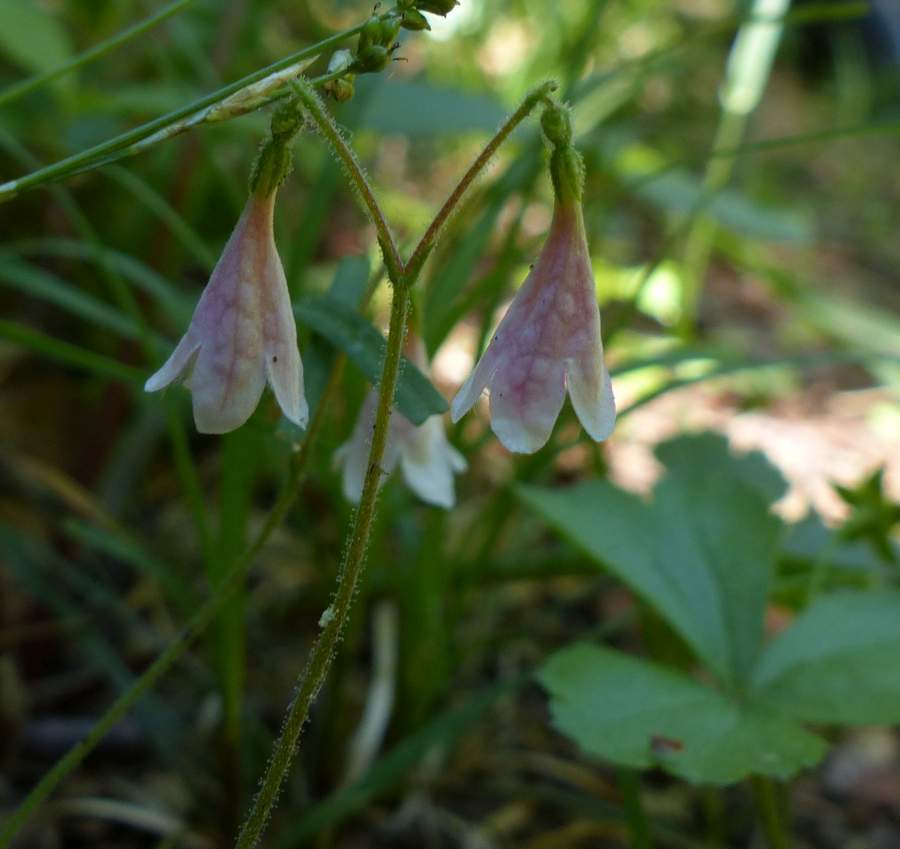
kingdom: Plantae
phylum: Tracheophyta
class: Magnoliopsida
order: Dipsacales
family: Caprifoliaceae
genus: Linnaea
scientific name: Linnaea borealis
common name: Twinflower
